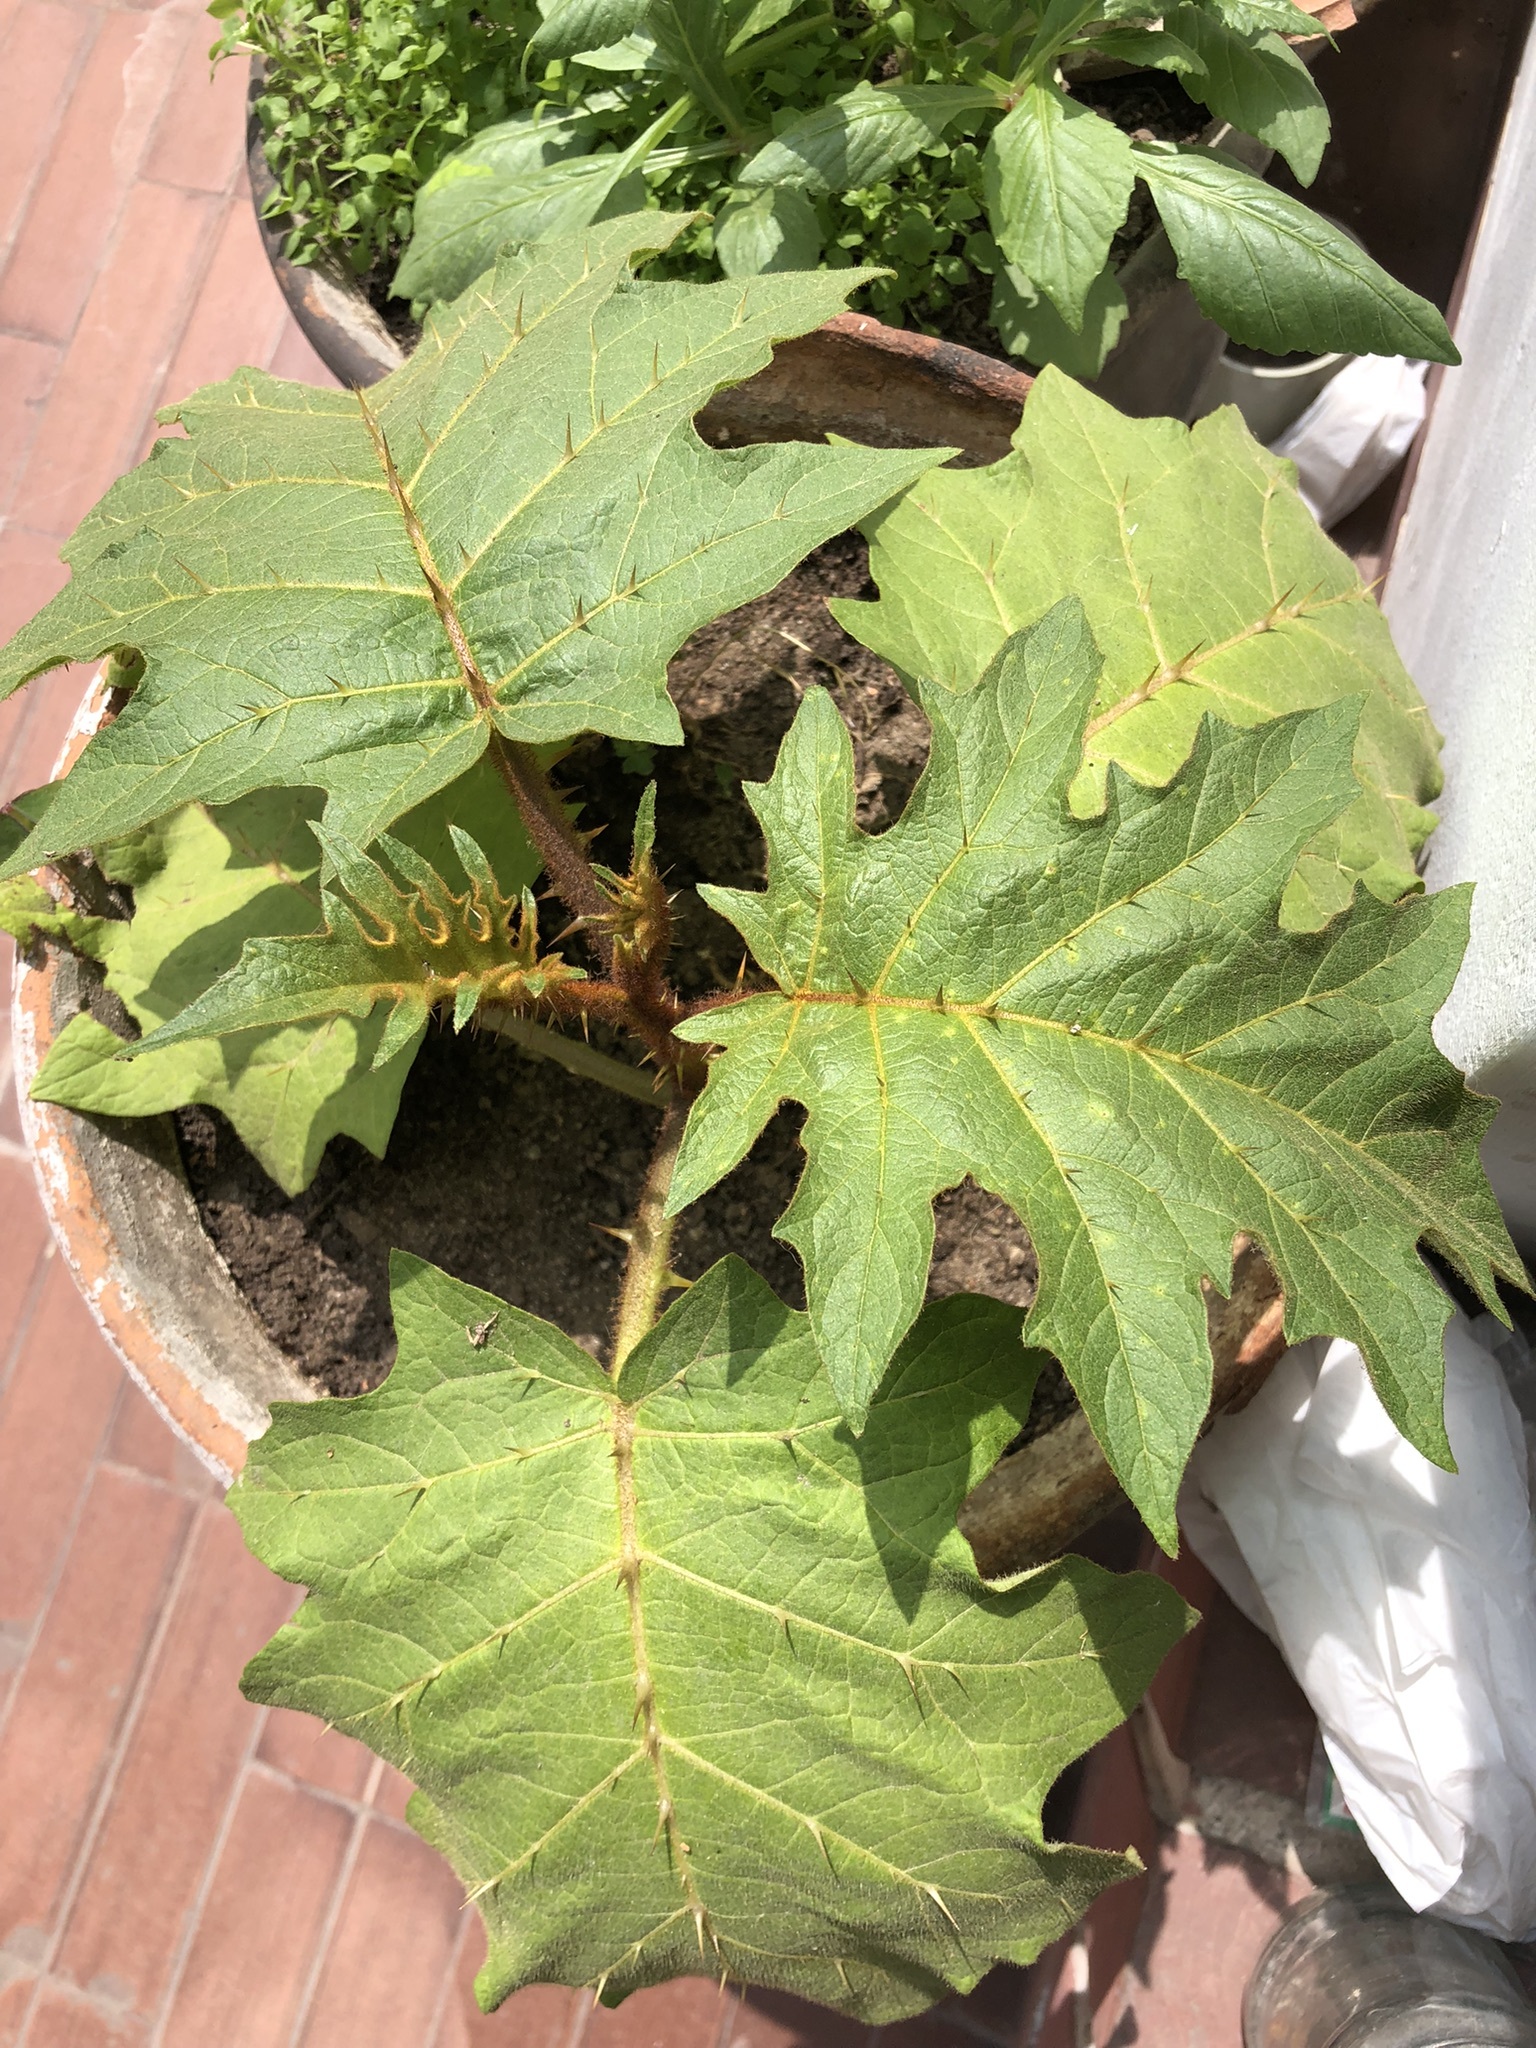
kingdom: Plantae
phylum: Tracheophyta
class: Magnoliopsida
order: Solanales
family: Solanaceae
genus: Solanum
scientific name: Solanum chrysotrichum
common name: Nightshade
